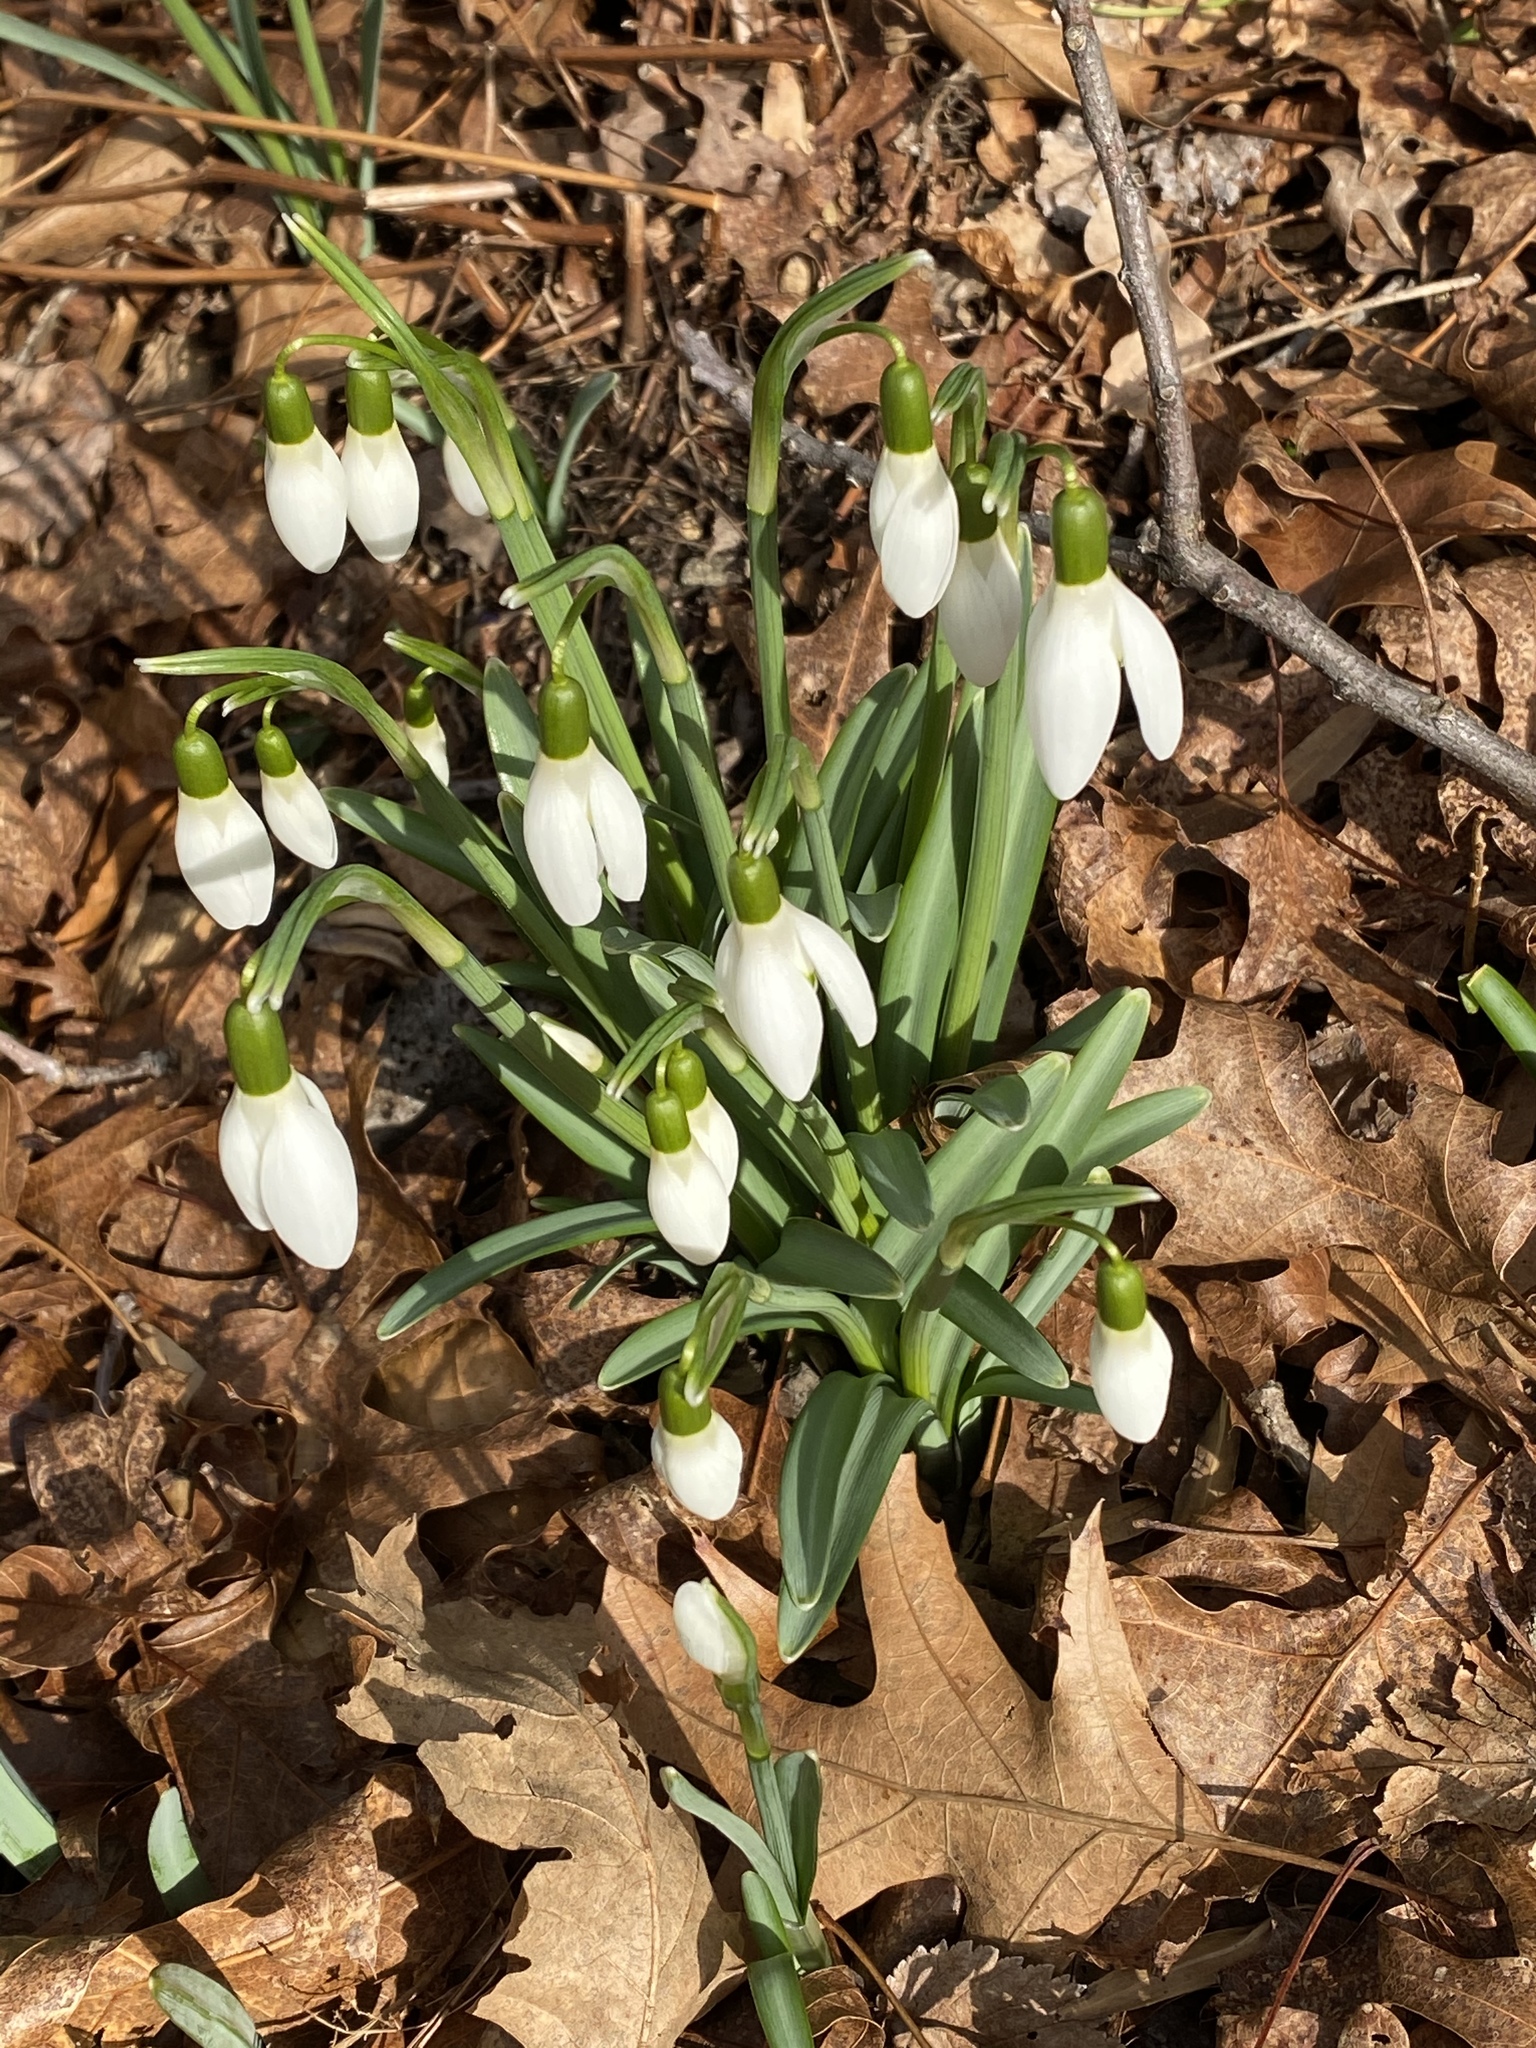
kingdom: Plantae
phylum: Tracheophyta
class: Liliopsida
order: Asparagales
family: Amaryllidaceae
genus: Galanthus
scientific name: Galanthus nivalis
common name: Snowdrop
